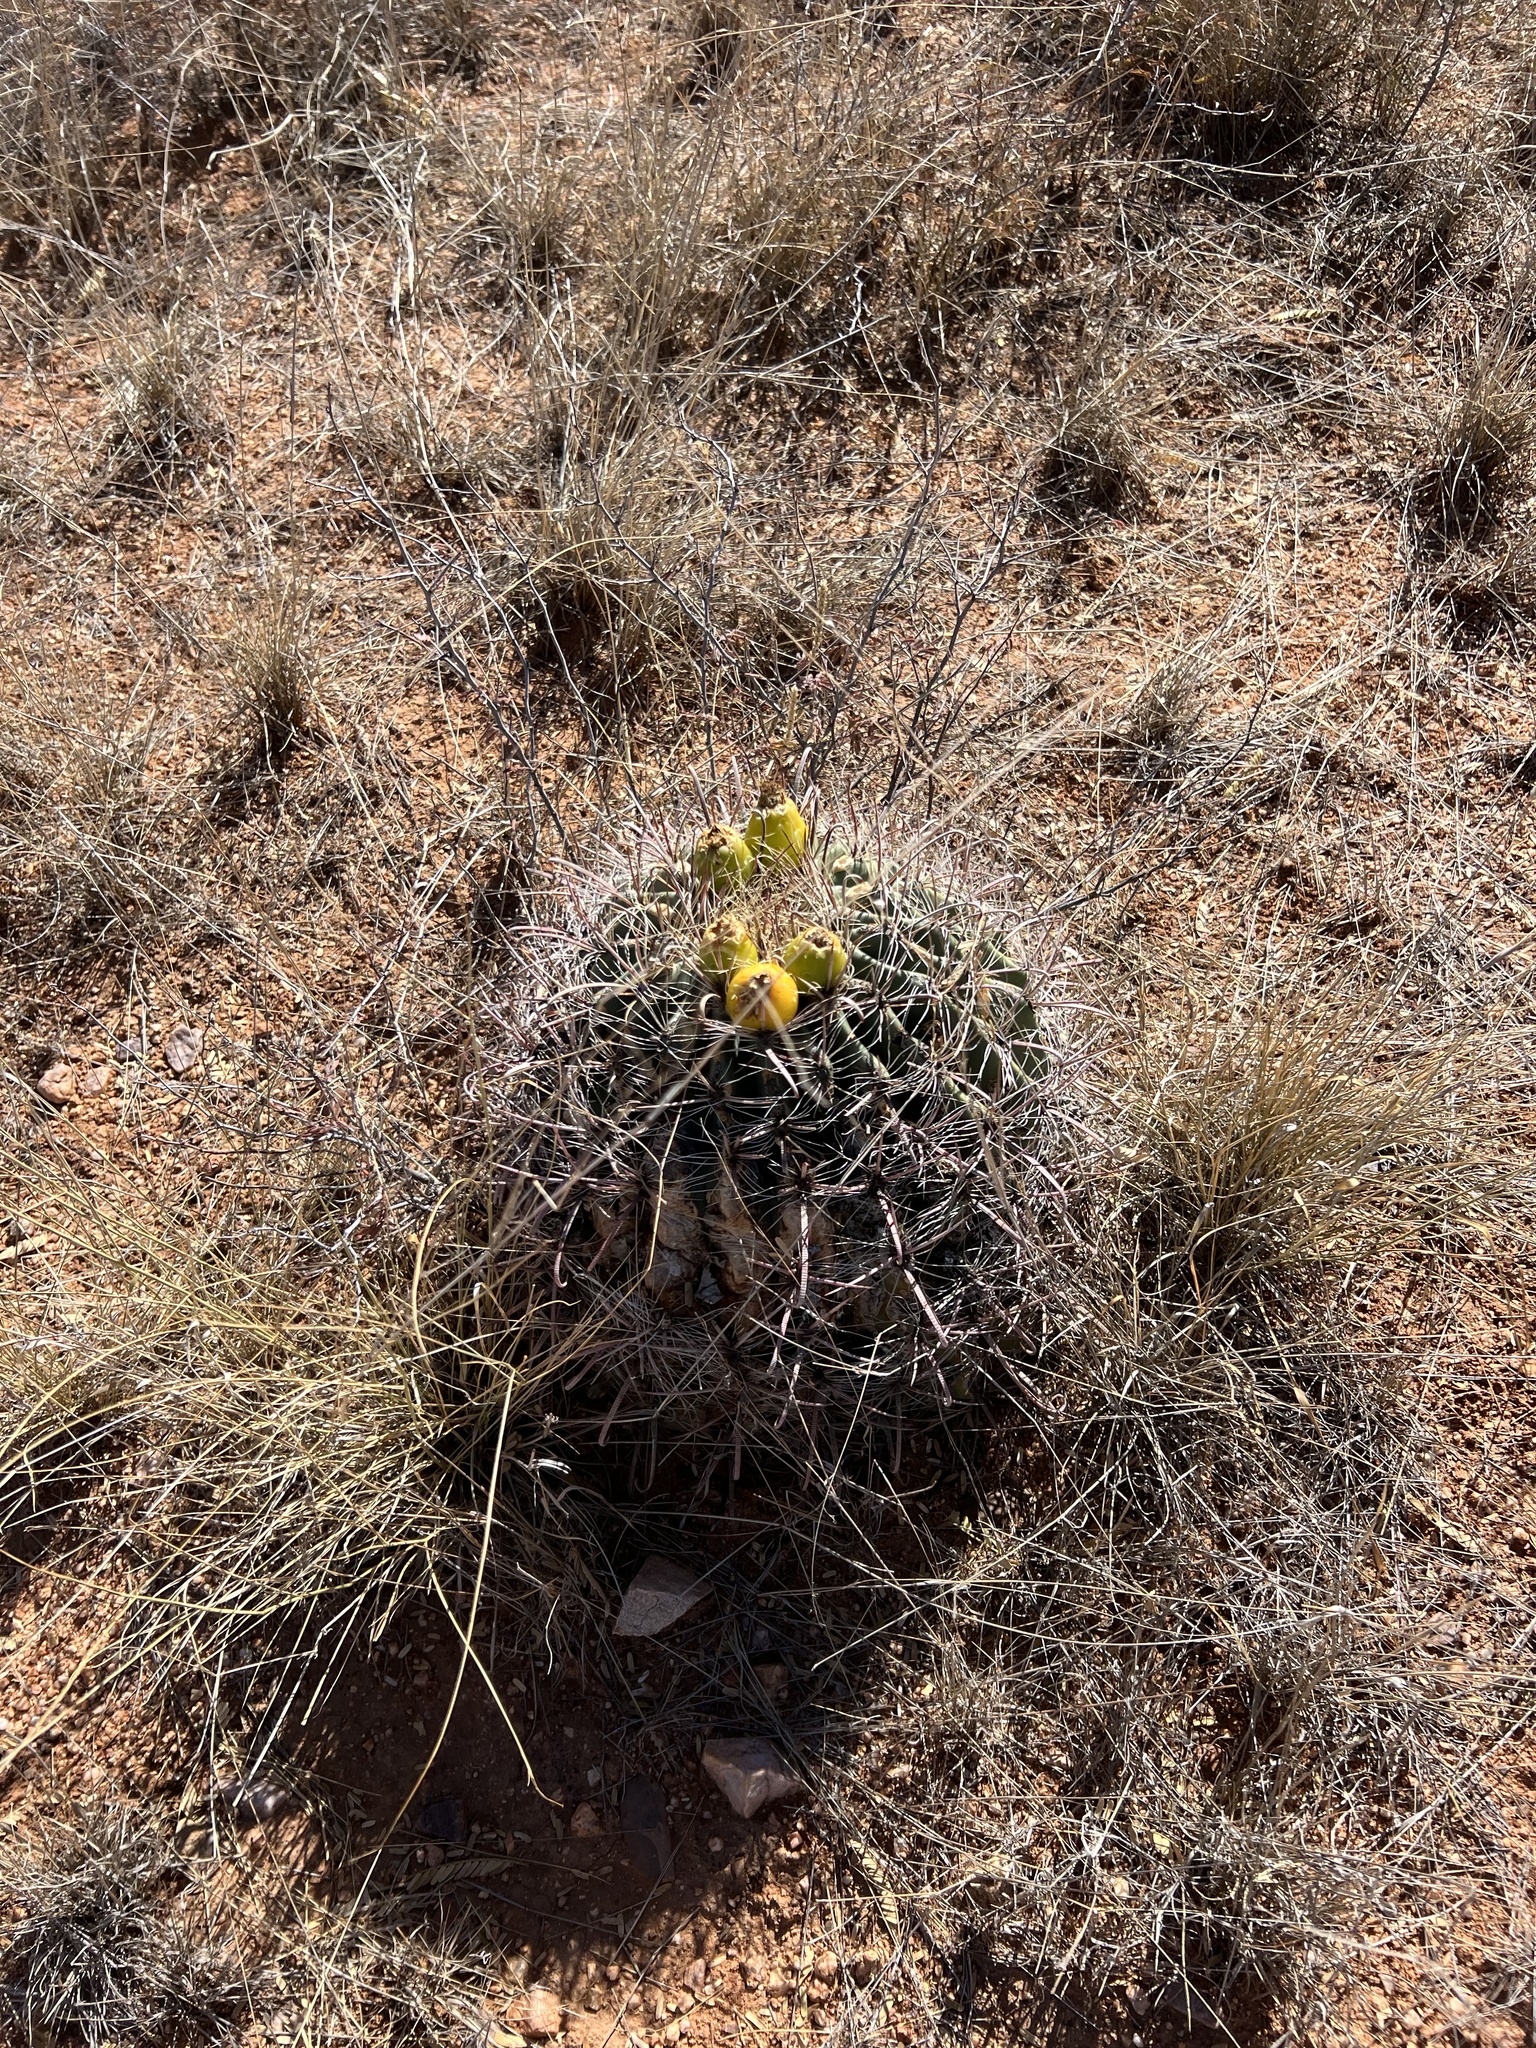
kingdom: Plantae
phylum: Tracheophyta
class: Magnoliopsida
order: Caryophyllales
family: Cactaceae
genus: Ferocactus
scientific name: Ferocactus wislizeni
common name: Candy barrel cactus
